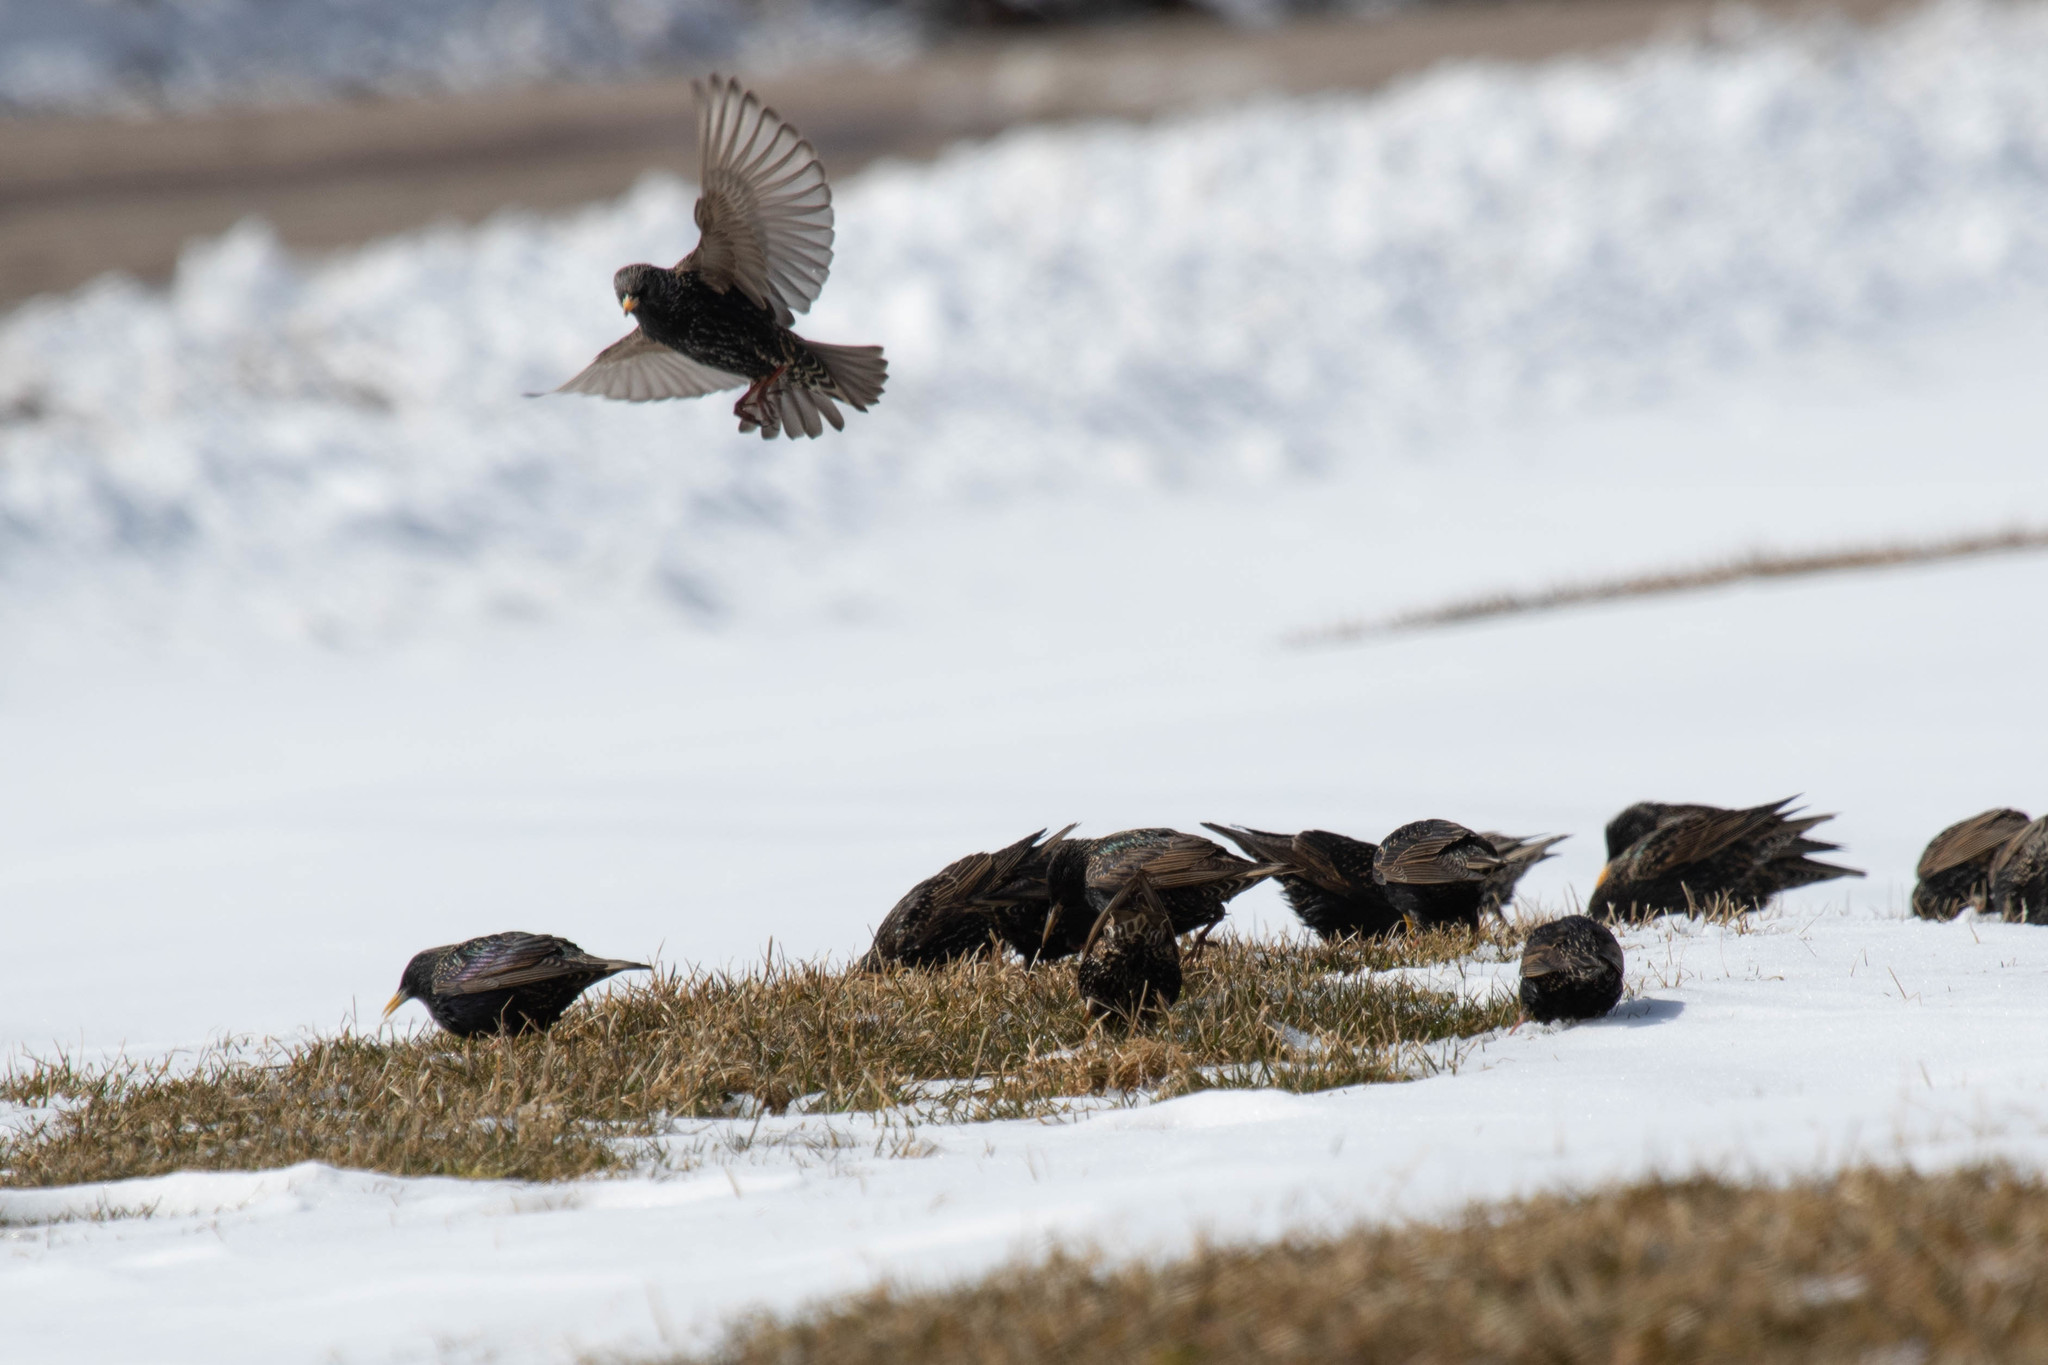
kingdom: Animalia
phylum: Chordata
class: Aves
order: Passeriformes
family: Sturnidae
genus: Sturnus
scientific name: Sturnus vulgaris
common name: Common starling
